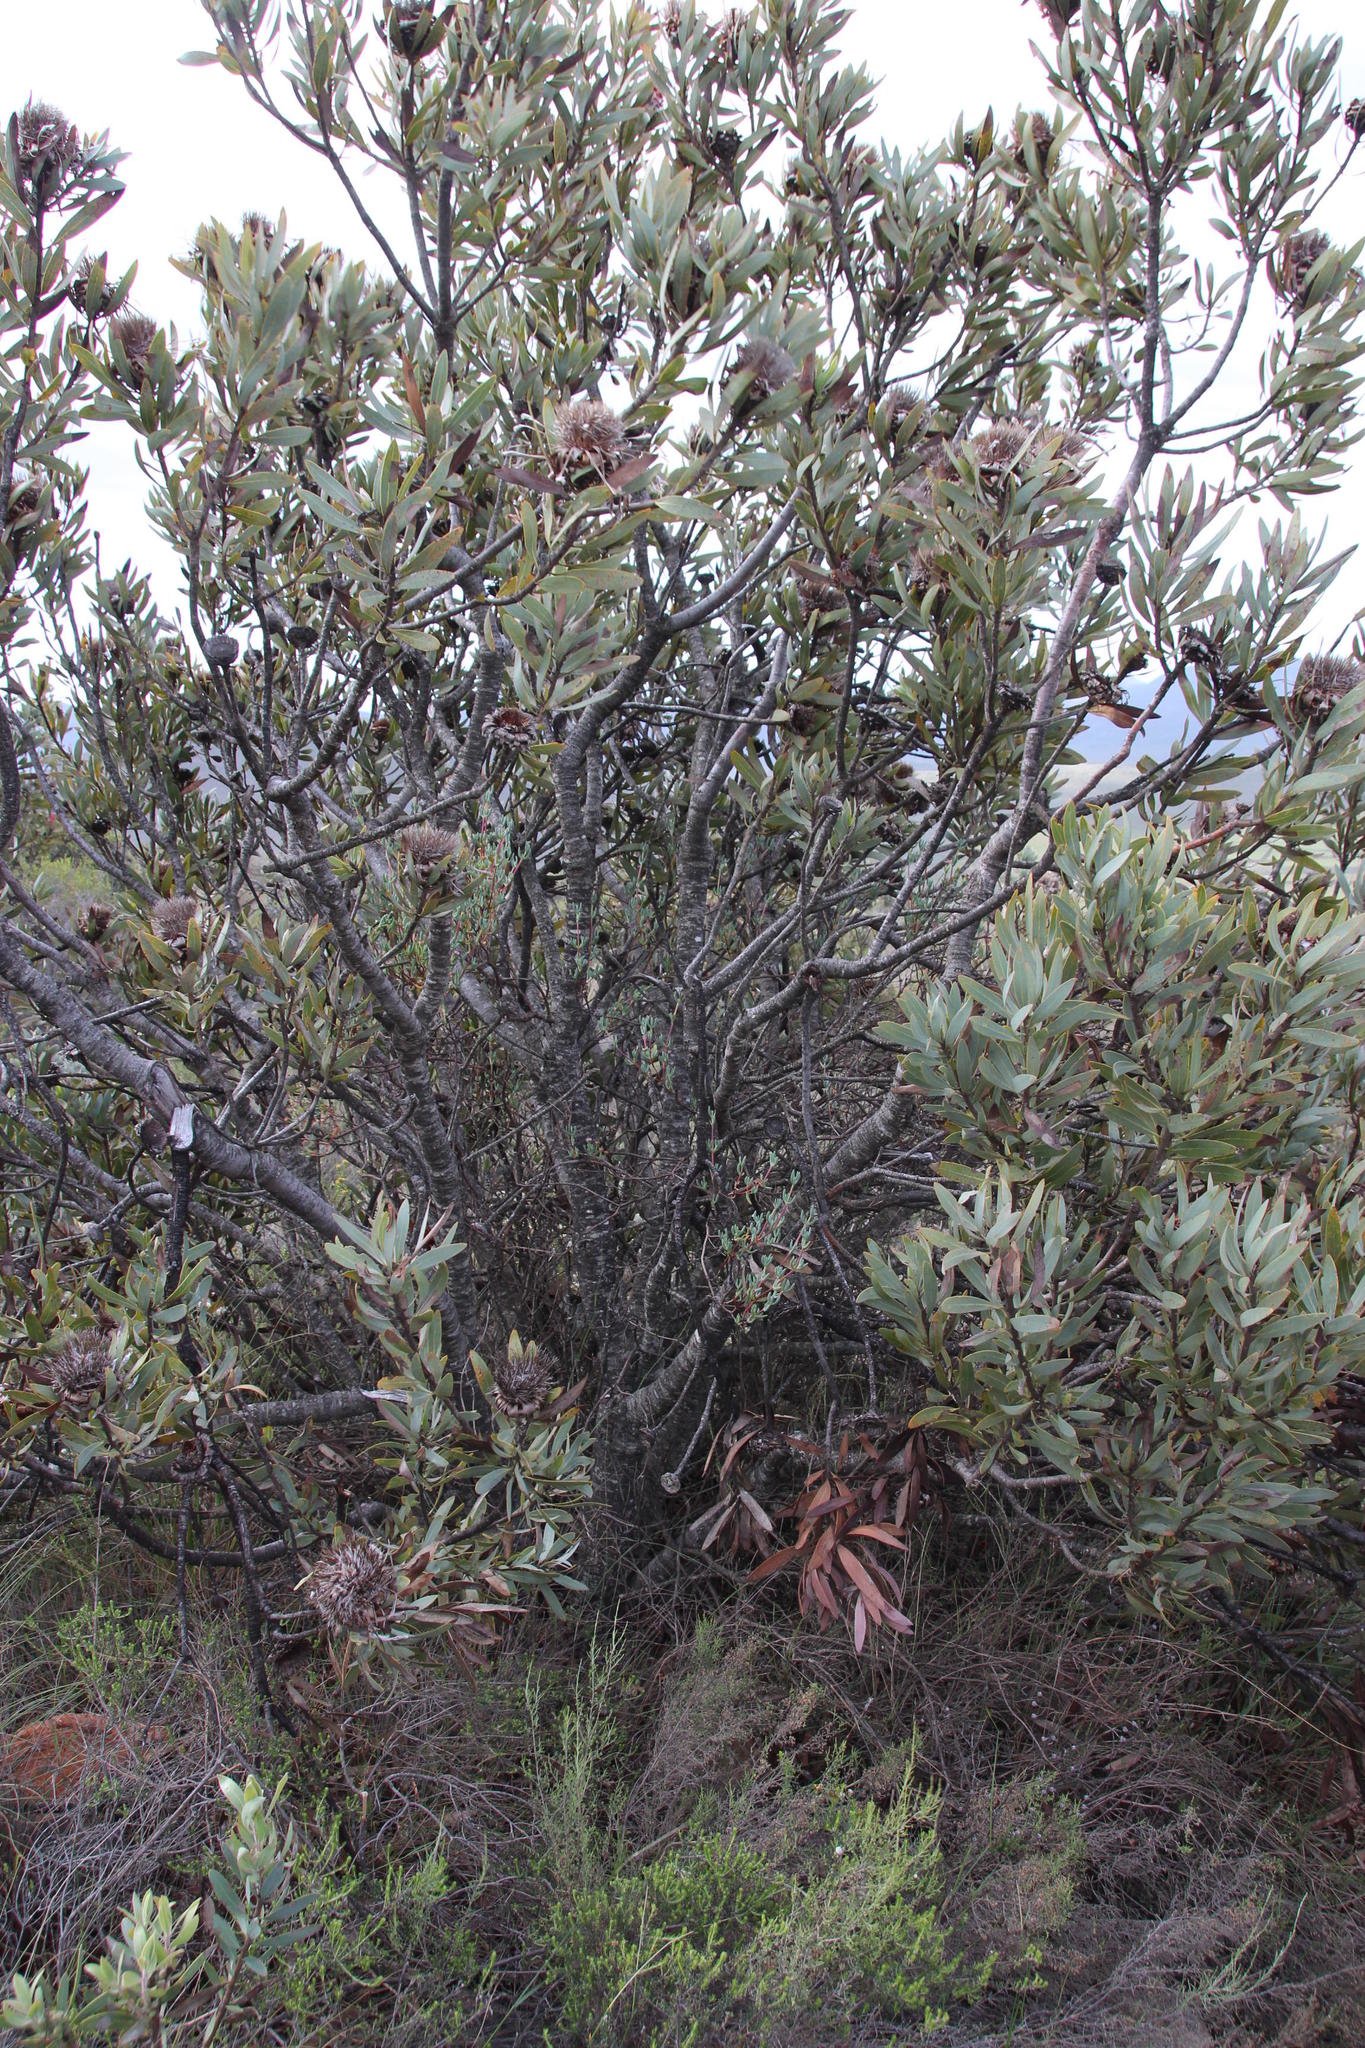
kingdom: Plantae
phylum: Tracheophyta
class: Magnoliopsida
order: Caryophyllales
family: Aizoaceae
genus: Ruschiella
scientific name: Ruschiella argentea
